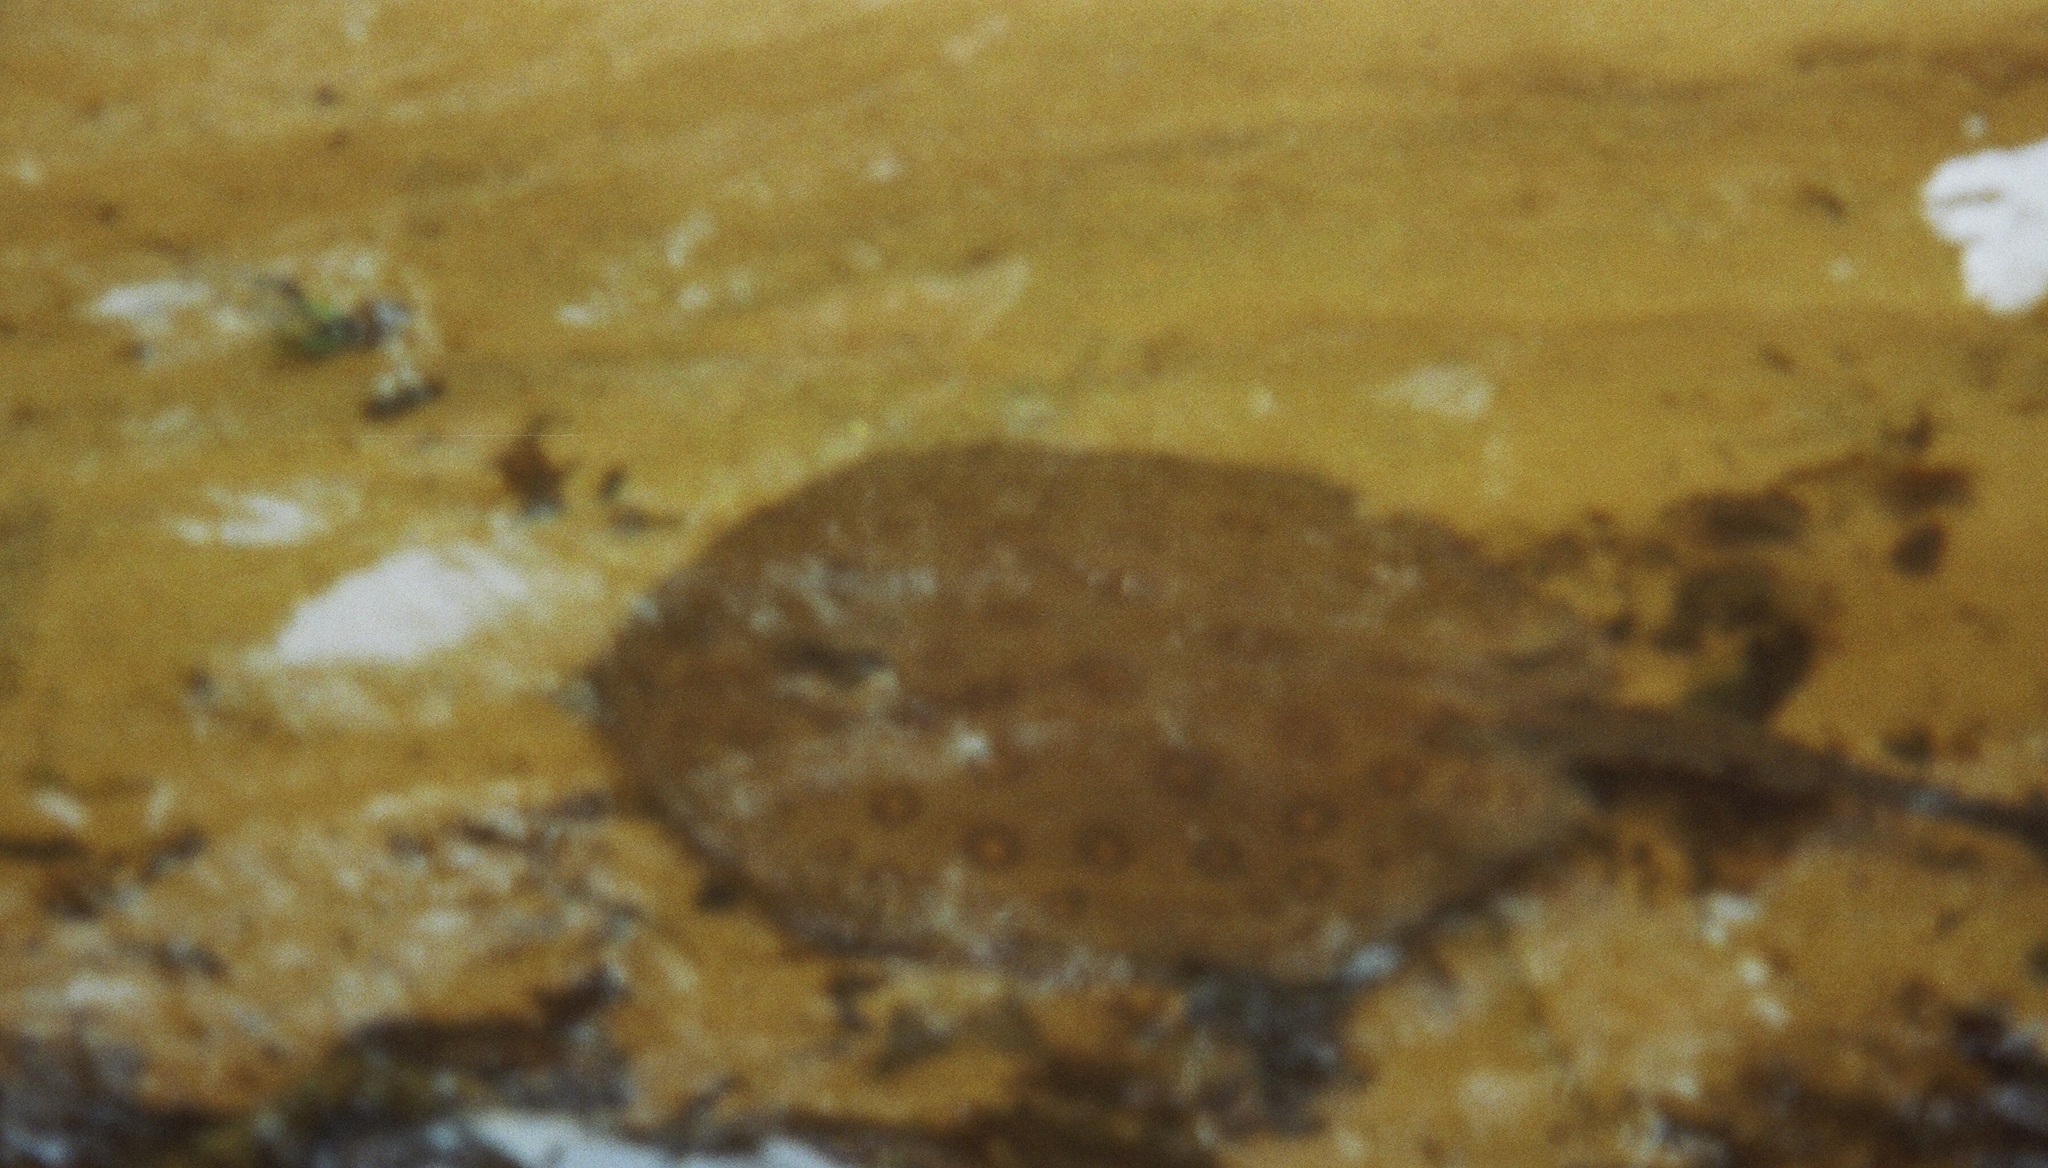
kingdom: Animalia
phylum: Chordata
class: Elasmobranchii
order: Myliobatiformes
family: Potamotrygonidae
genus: Potamotrygon
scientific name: Potamotrygon motoro
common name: South american freshwater stingray
